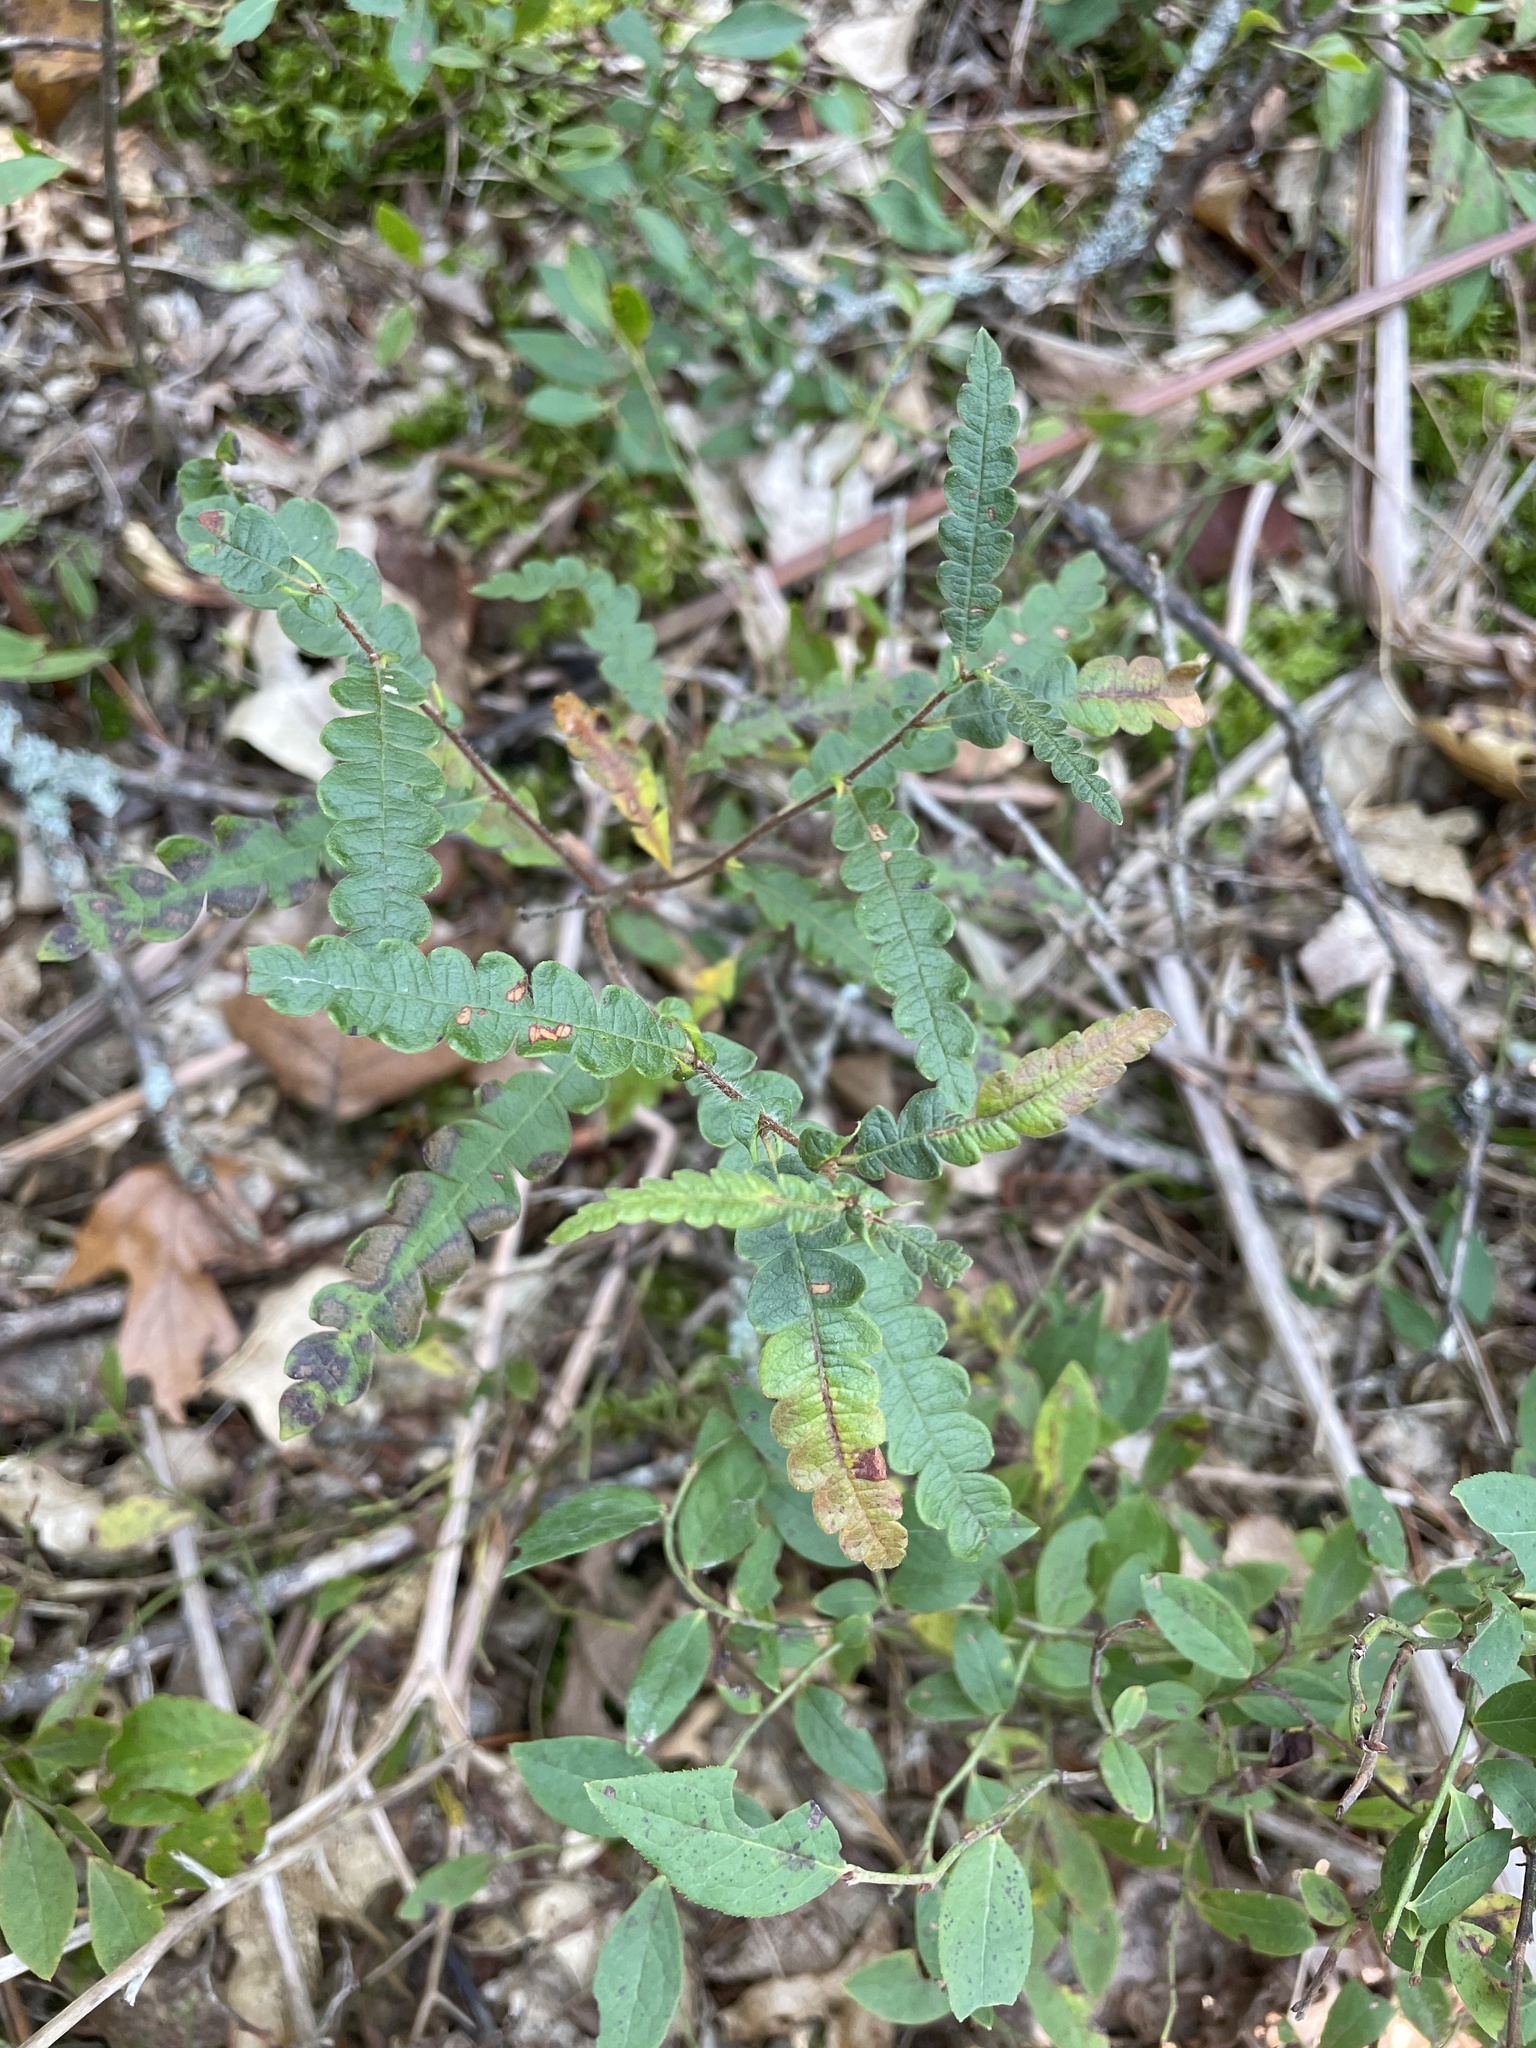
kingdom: Plantae
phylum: Tracheophyta
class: Magnoliopsida
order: Fagales
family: Myricaceae
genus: Comptonia
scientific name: Comptonia peregrina
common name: Sweet-fern
